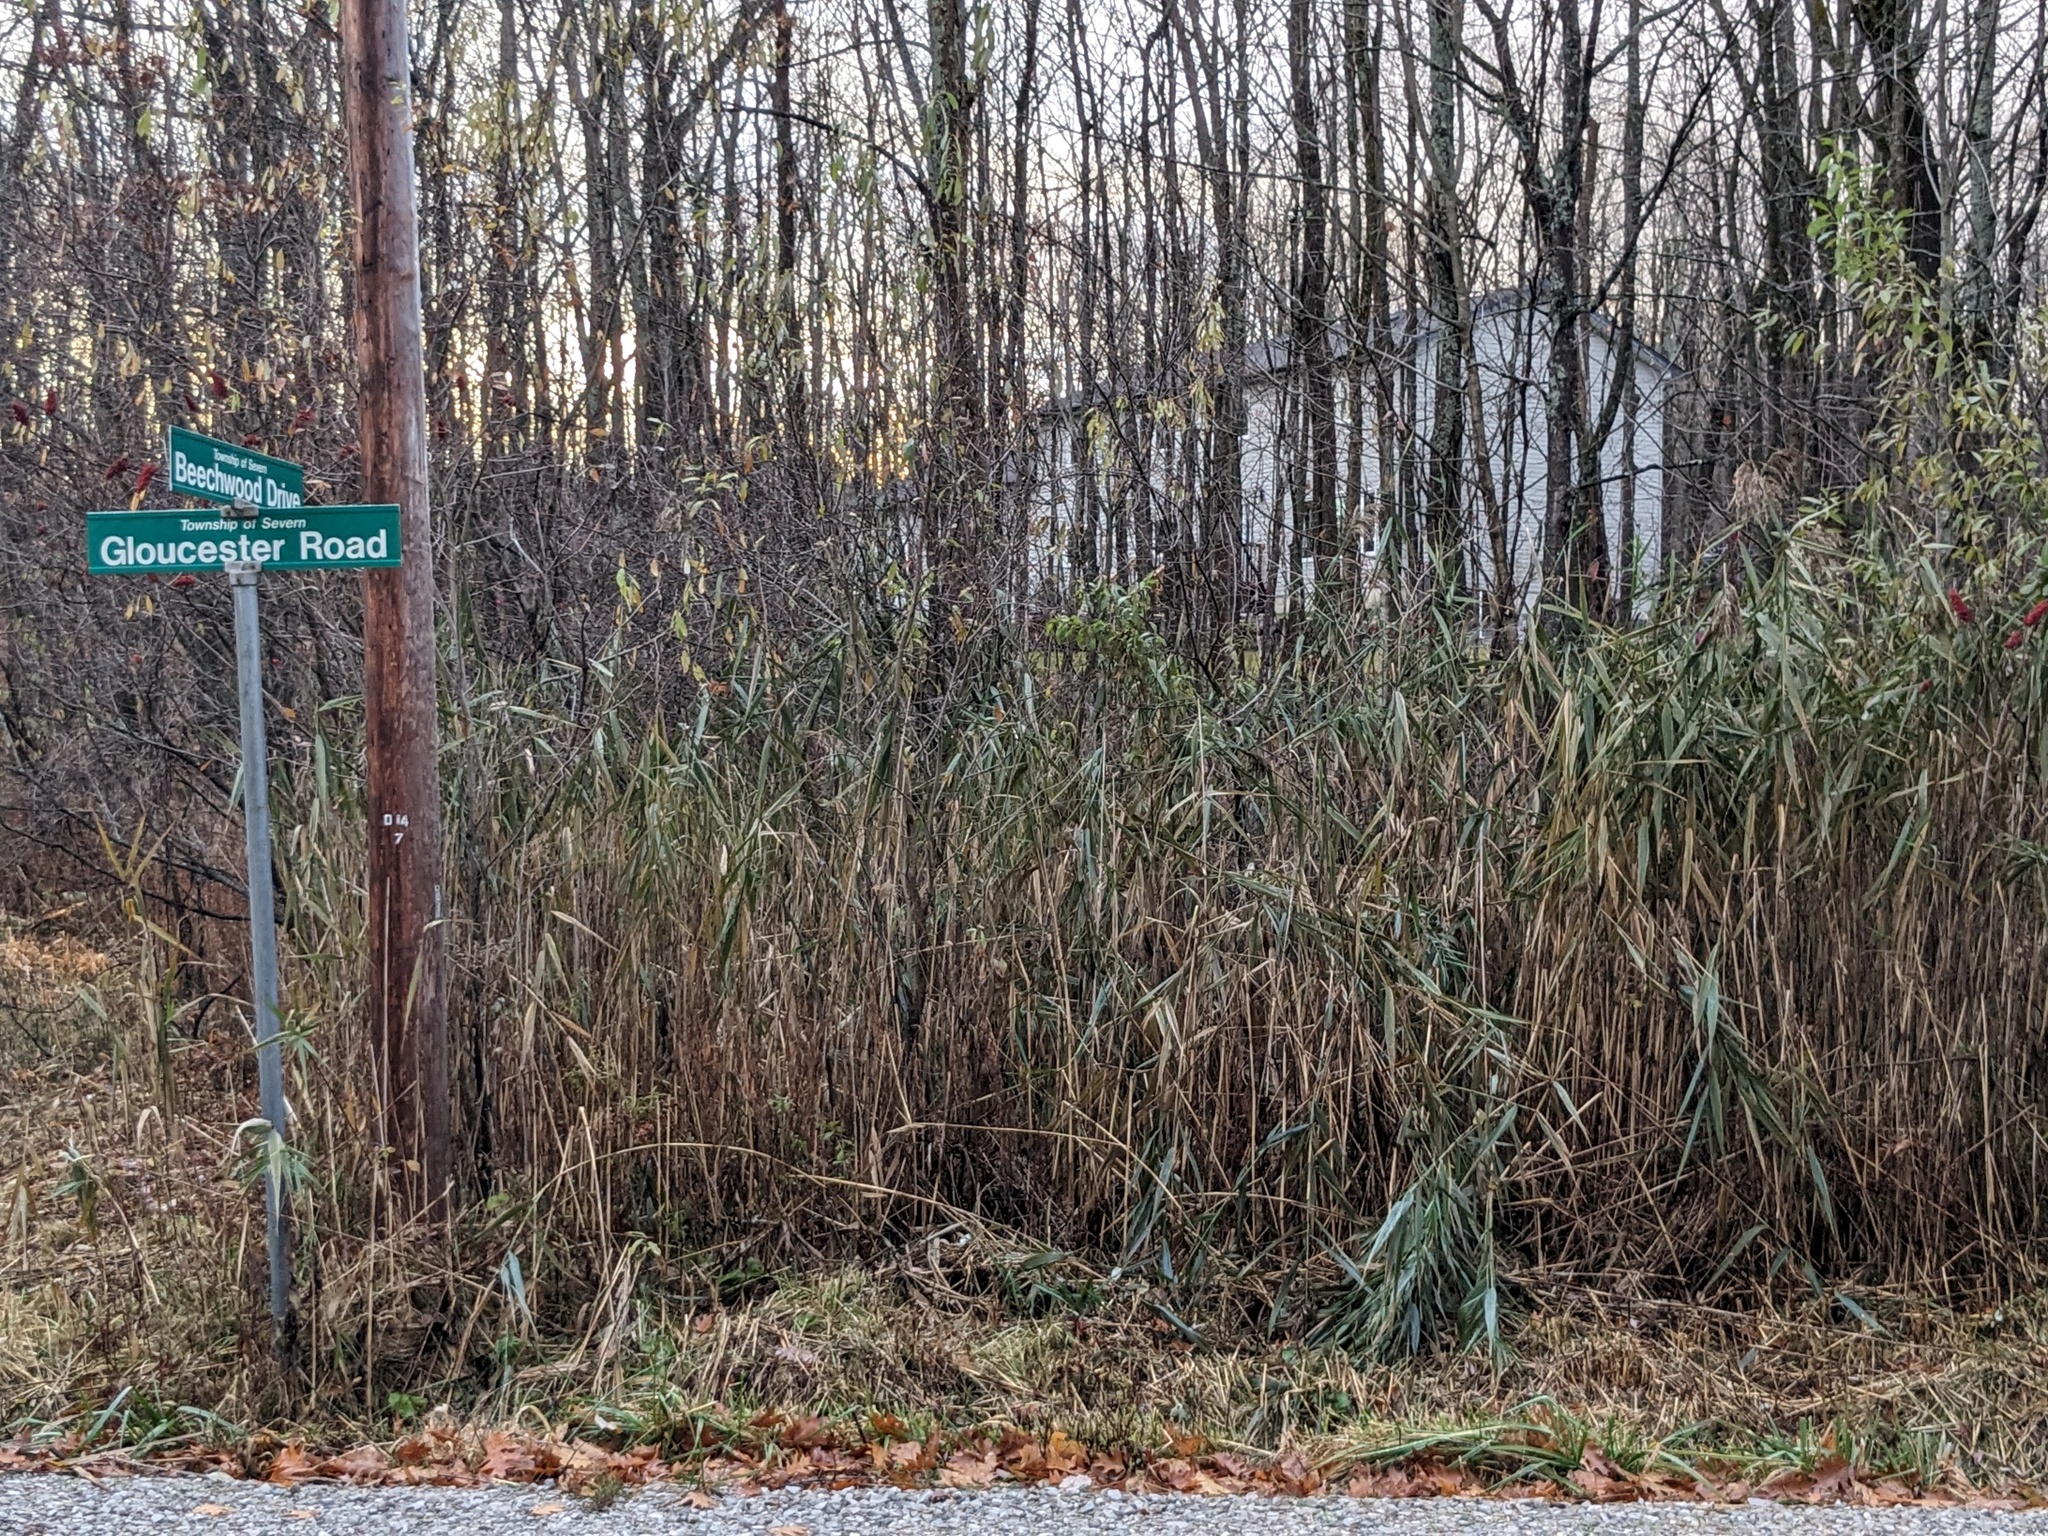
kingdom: Plantae
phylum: Tracheophyta
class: Liliopsida
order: Poales
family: Poaceae
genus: Phragmites
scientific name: Phragmites australis
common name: Common reed
